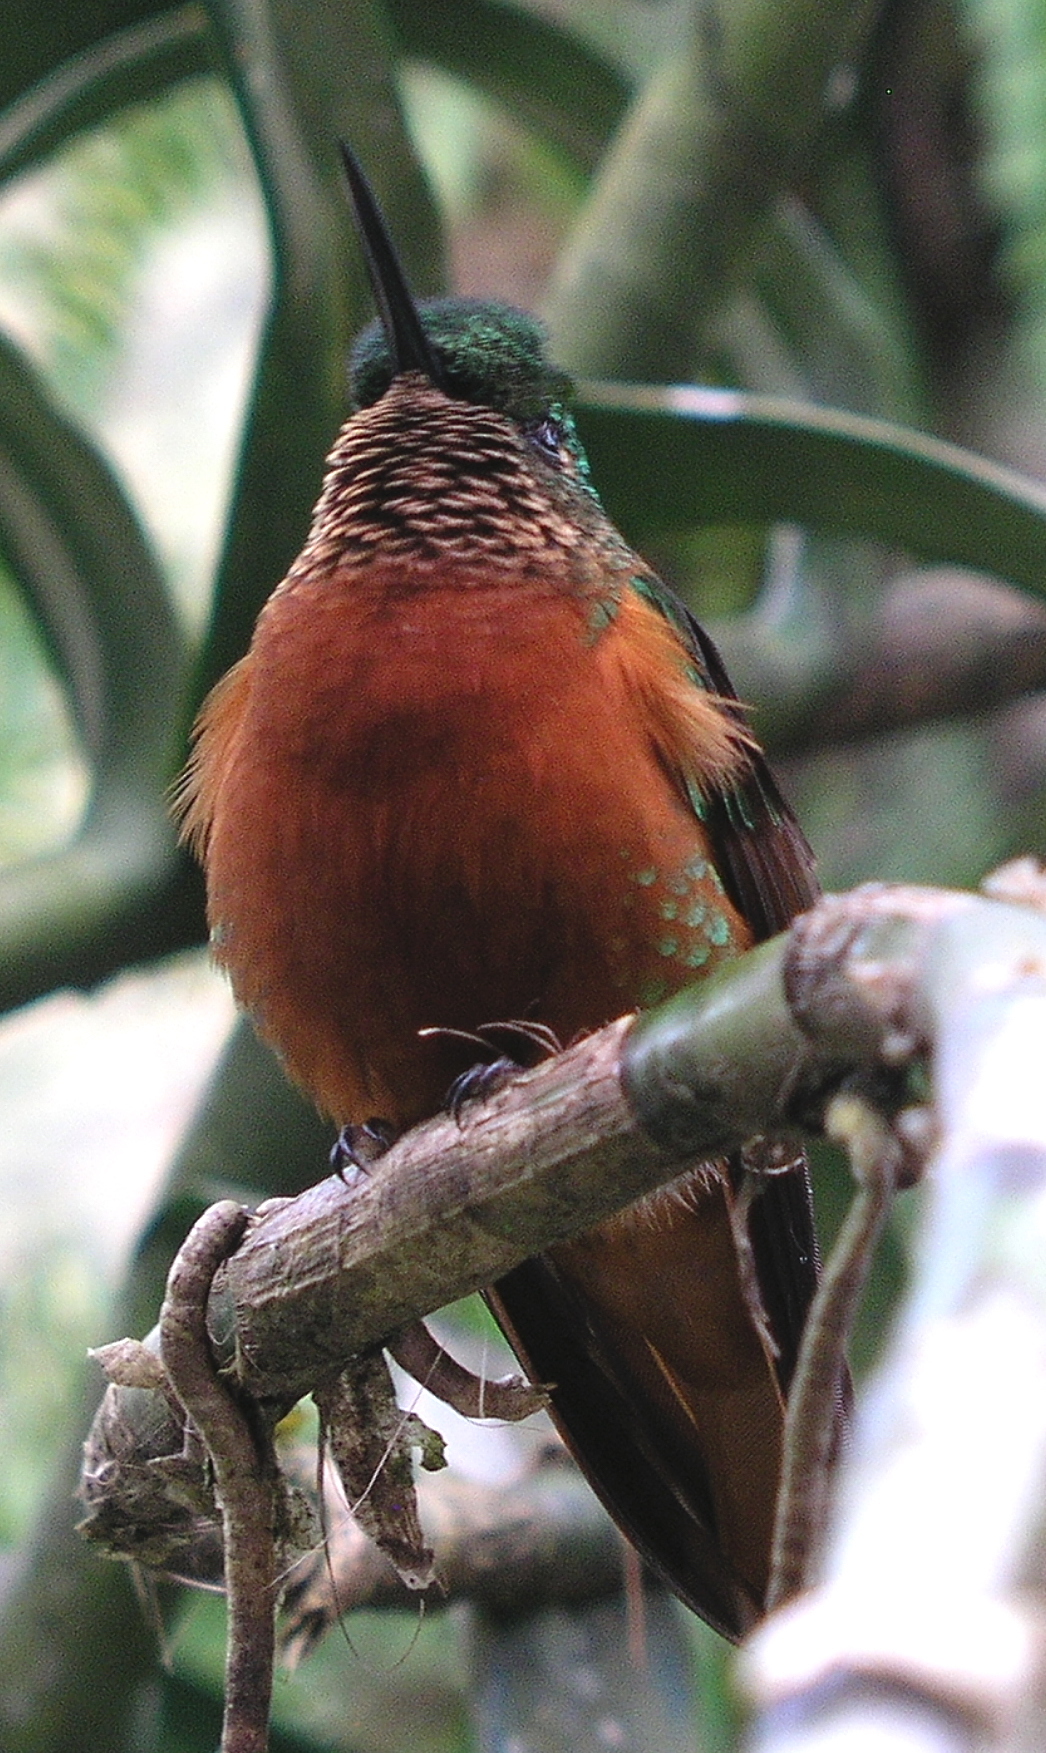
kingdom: Animalia
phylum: Chordata
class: Aves
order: Apodiformes
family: Trochilidae
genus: Boissonneaua
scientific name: Boissonneaua matthewsii
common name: Chestnut-breasted coronet
